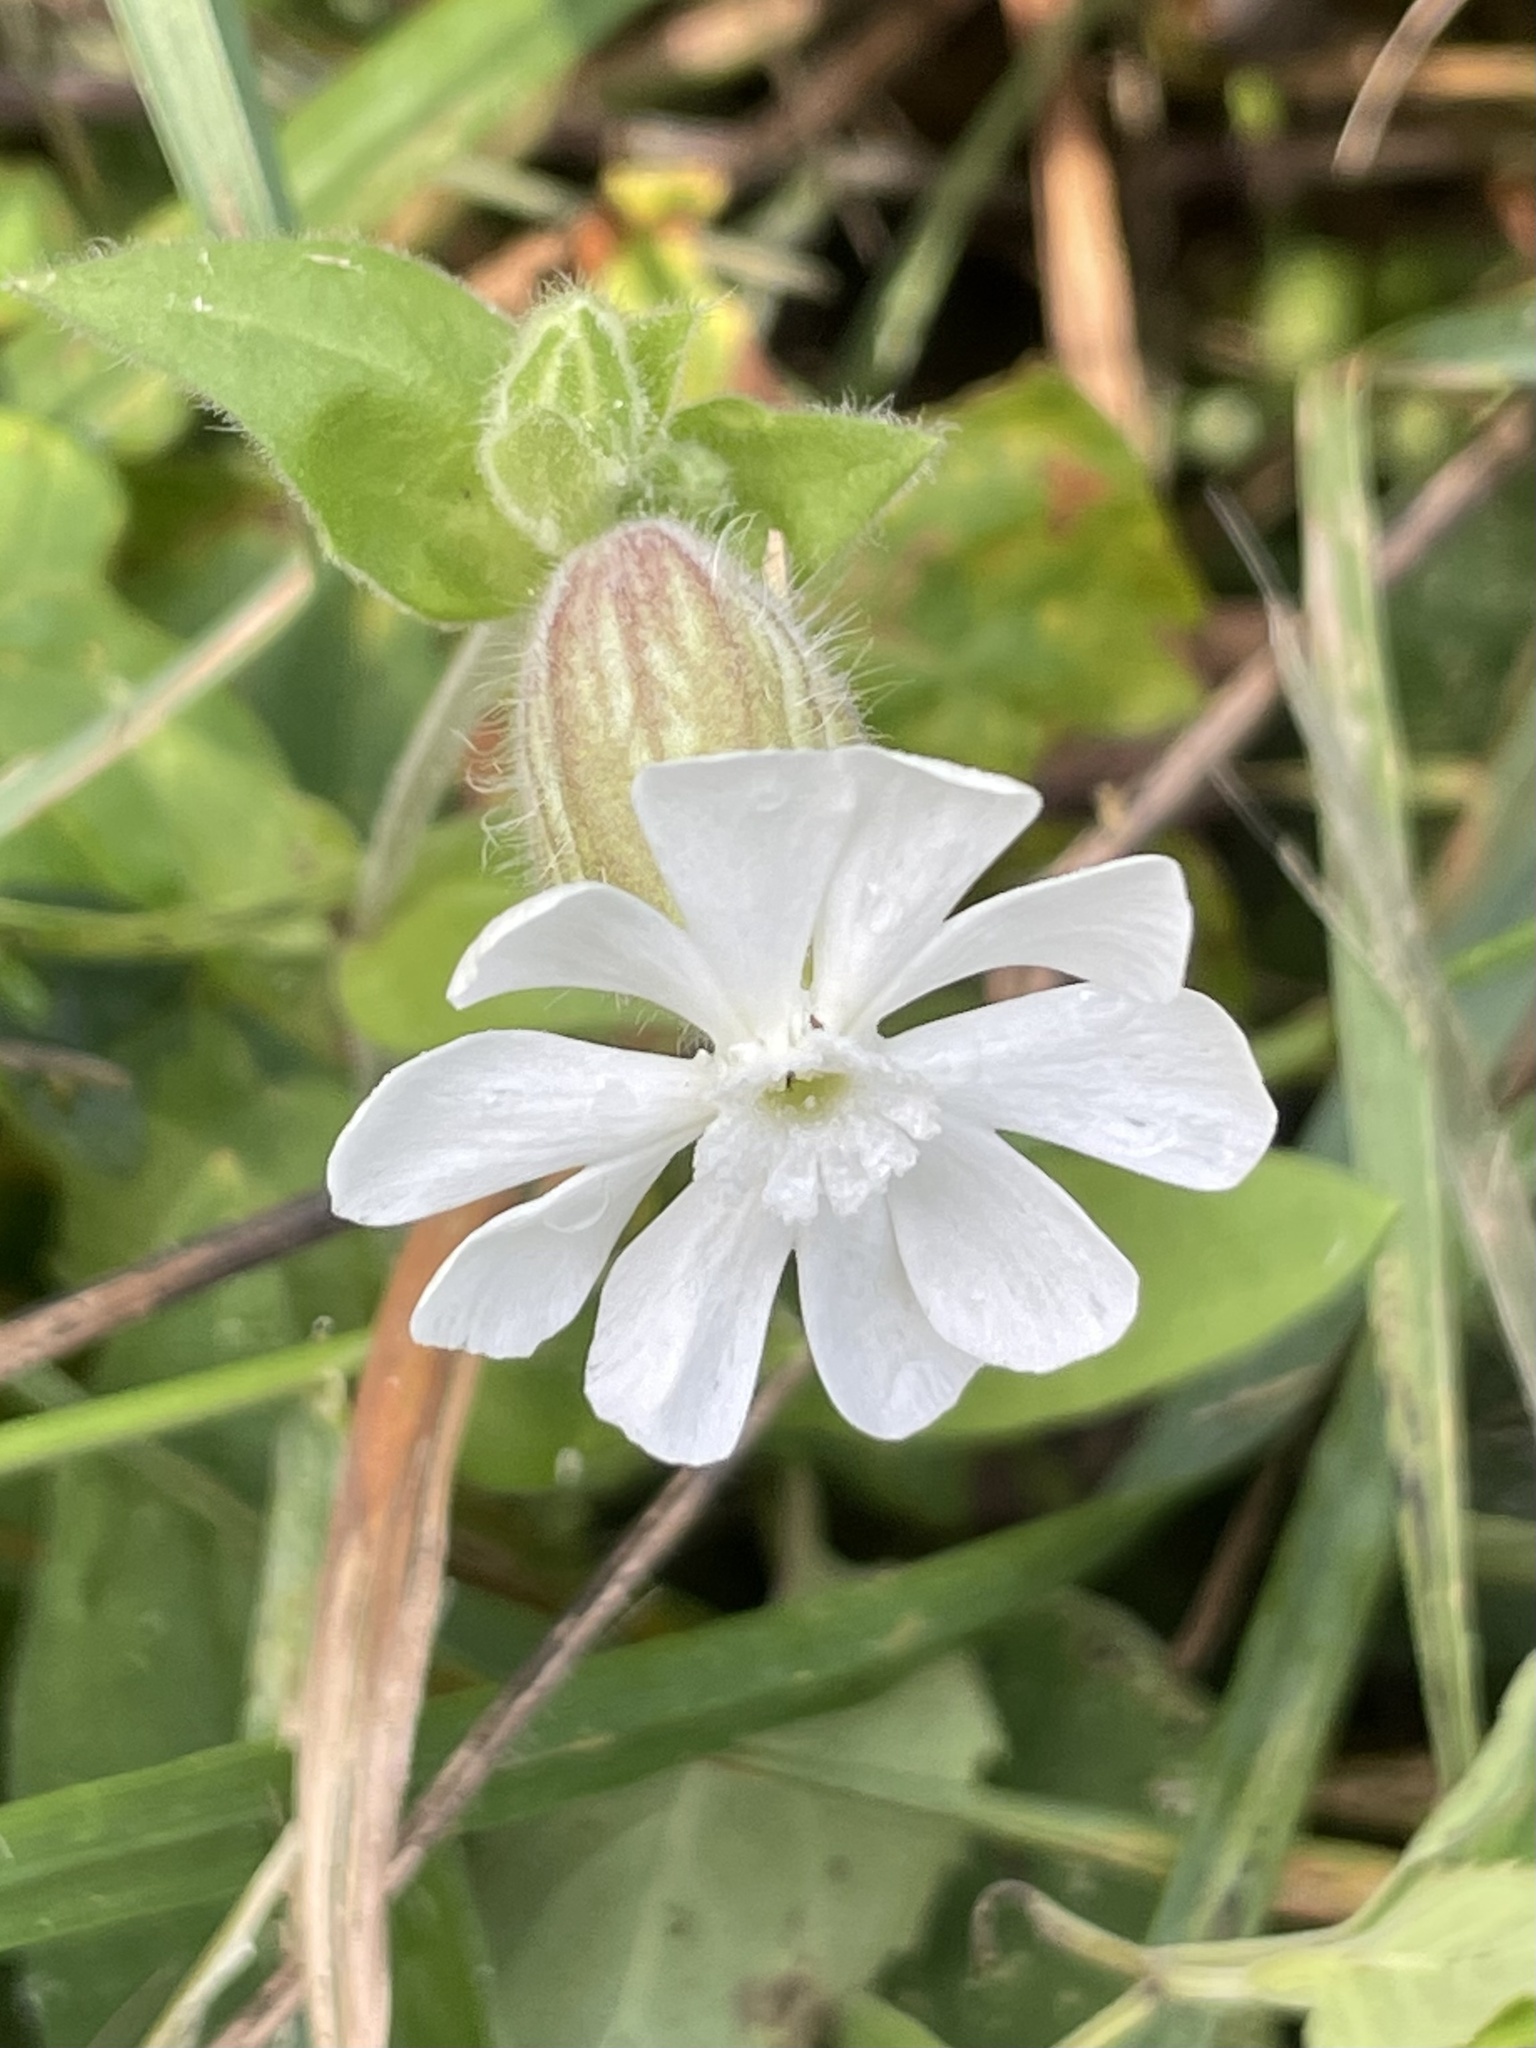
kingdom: Plantae
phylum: Tracheophyta
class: Magnoliopsida
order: Caryophyllales
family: Caryophyllaceae
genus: Silene
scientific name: Silene latifolia
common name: White campion
